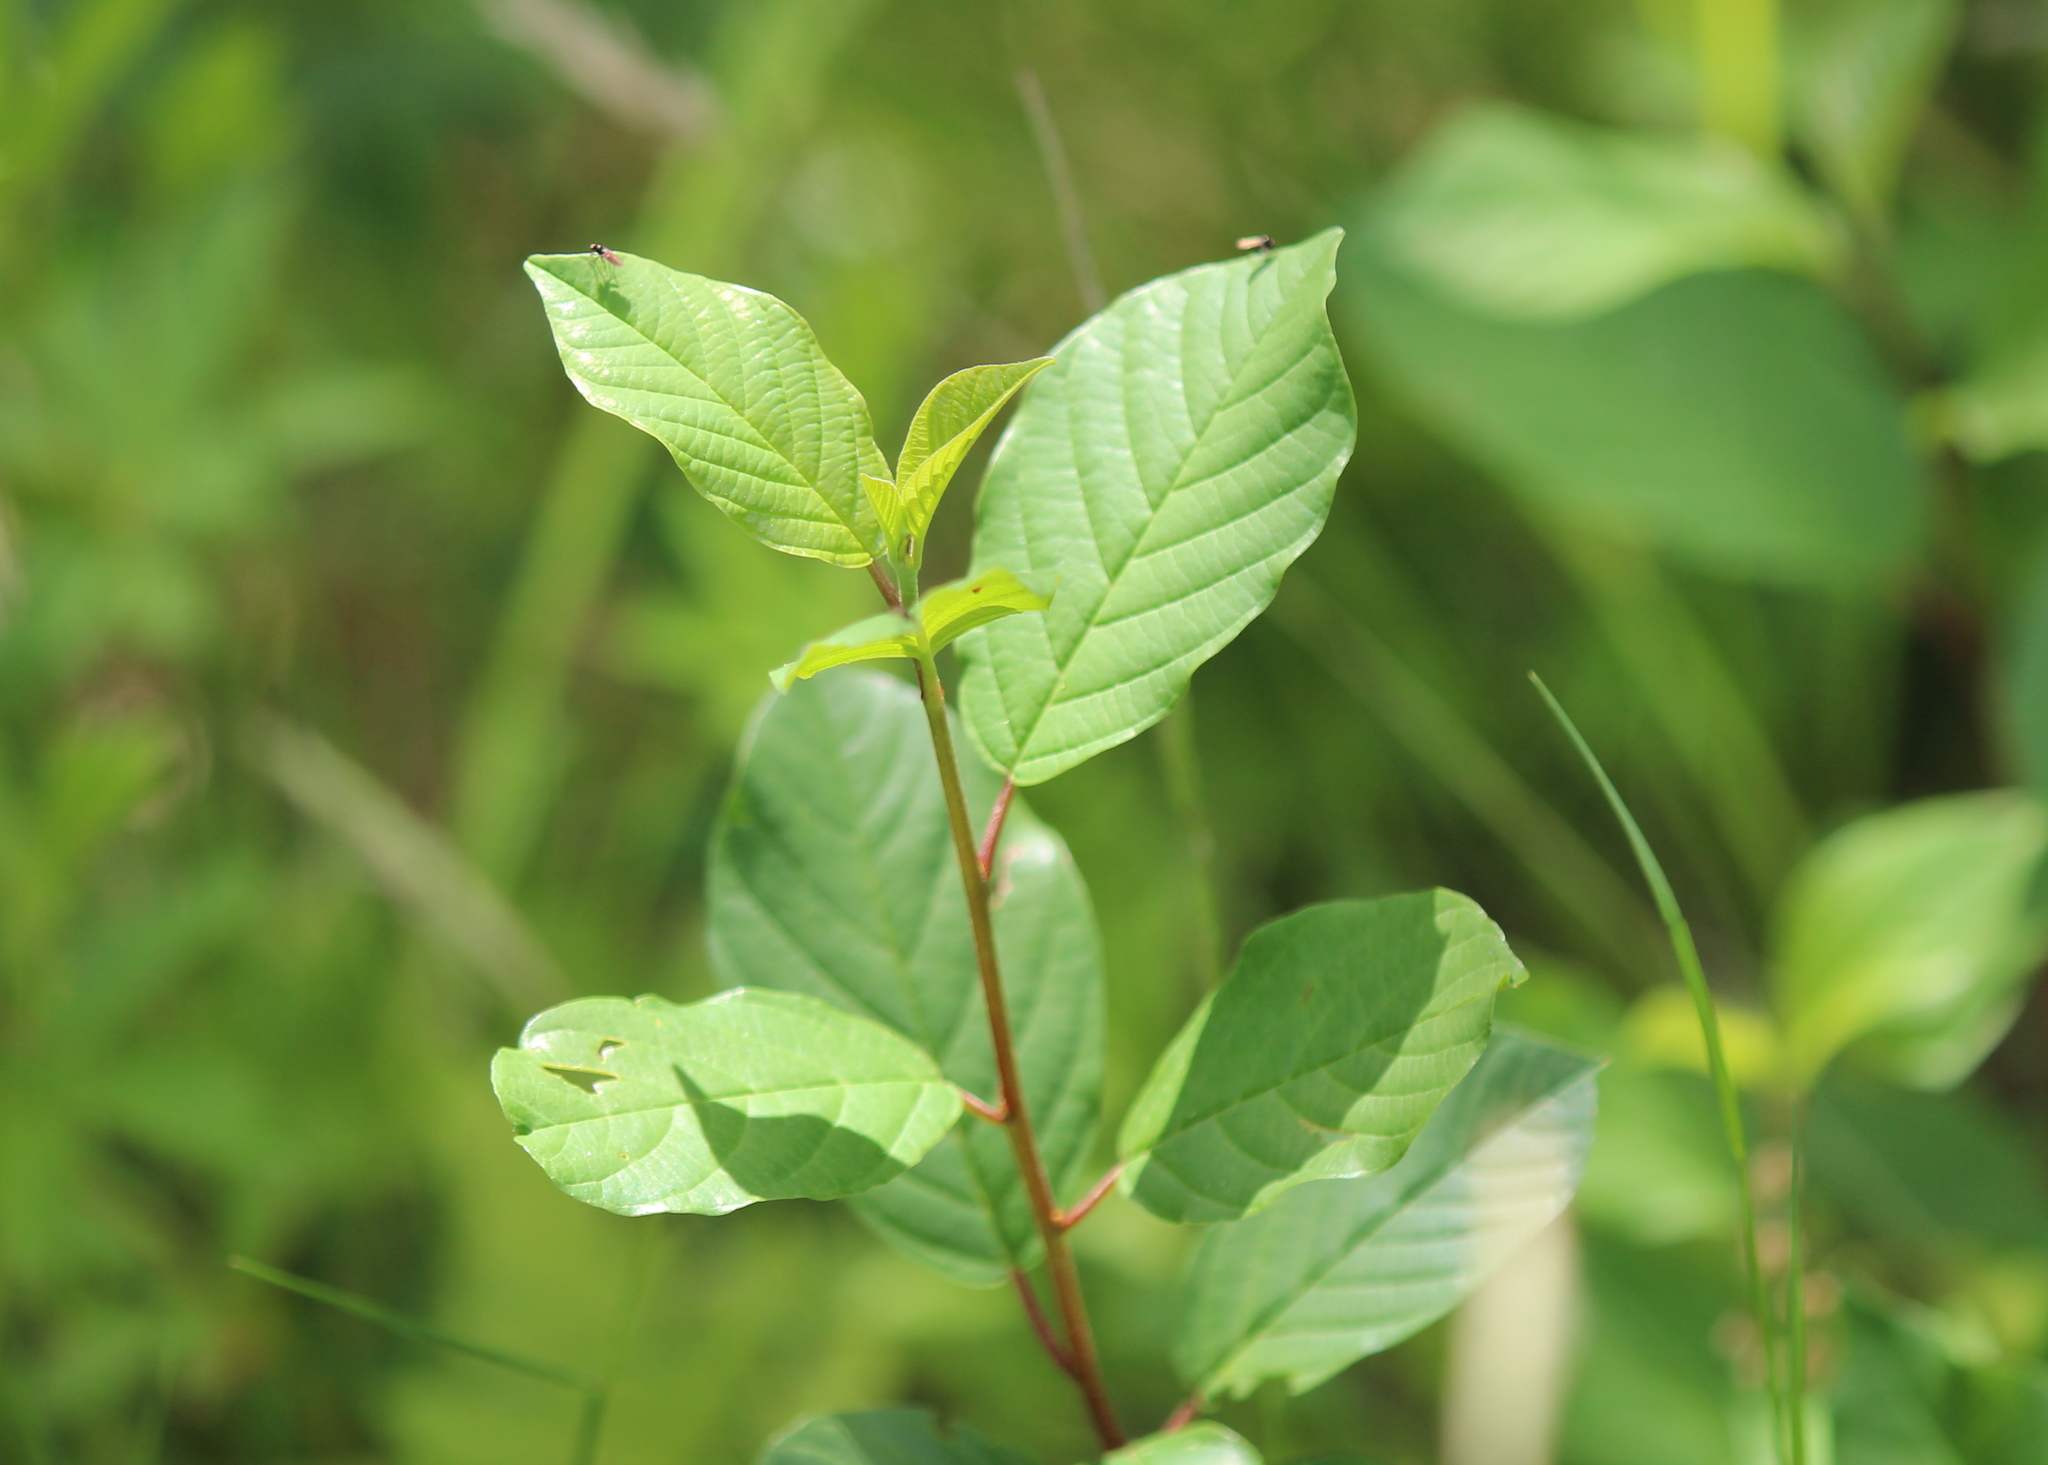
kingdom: Plantae
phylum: Tracheophyta
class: Magnoliopsida
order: Rosales
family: Rhamnaceae
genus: Frangula
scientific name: Frangula alnus
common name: Alder buckthorn
